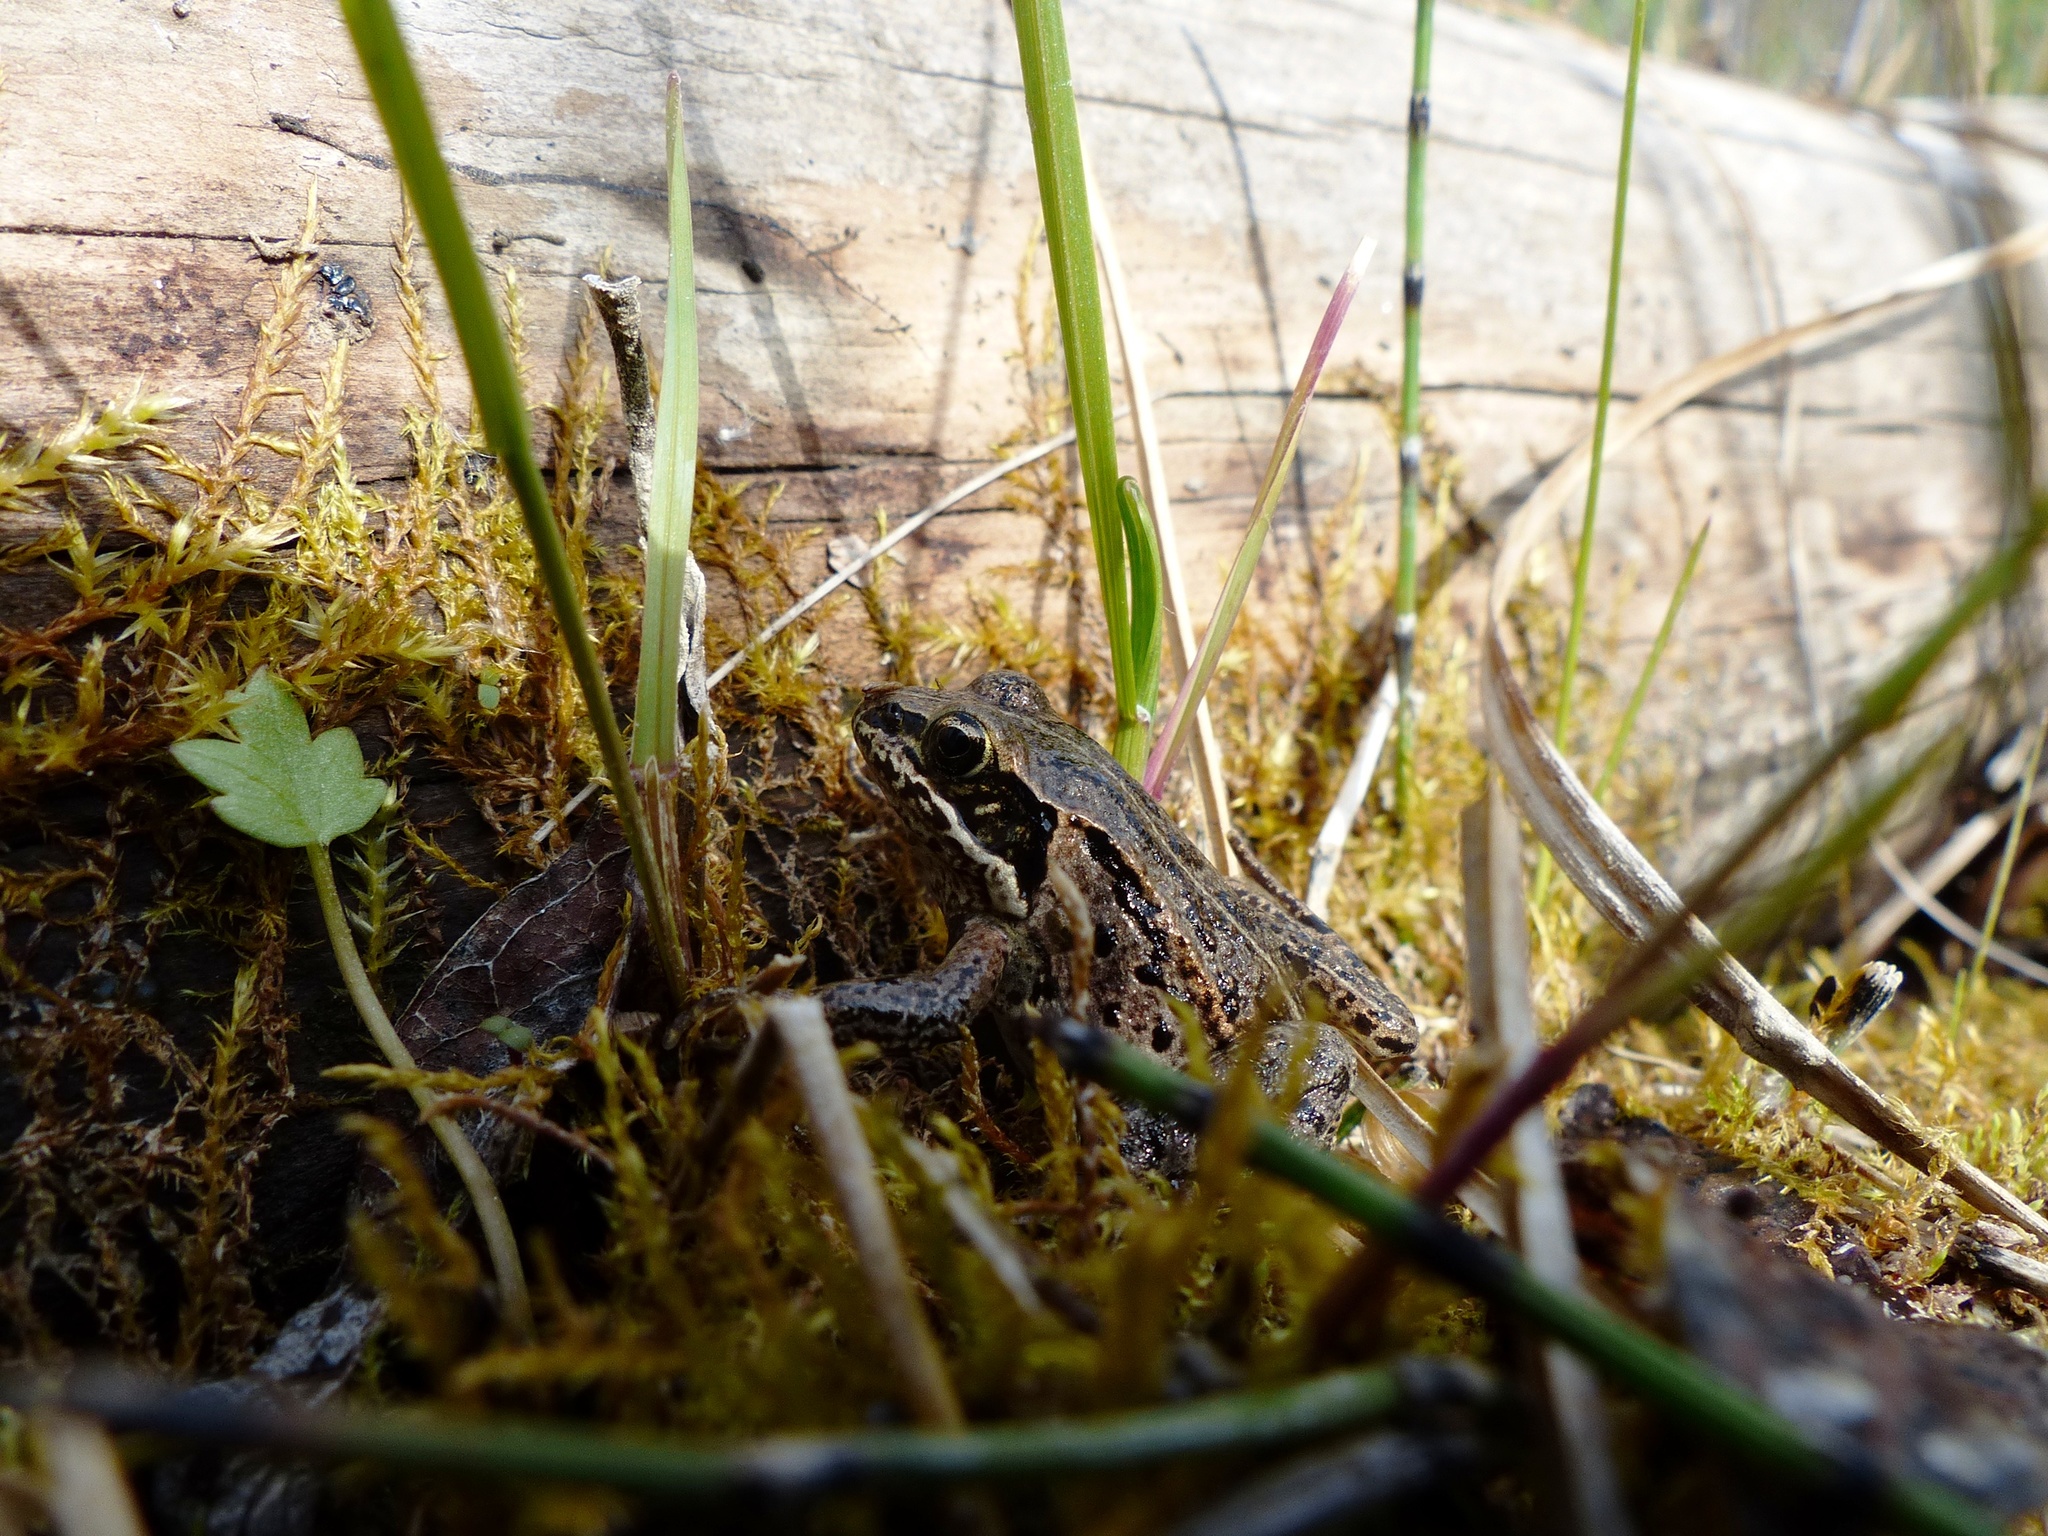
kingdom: Animalia
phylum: Chordata
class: Amphibia
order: Anura
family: Ranidae
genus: Lithobates
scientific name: Lithobates sylvaticus
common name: Wood frog
